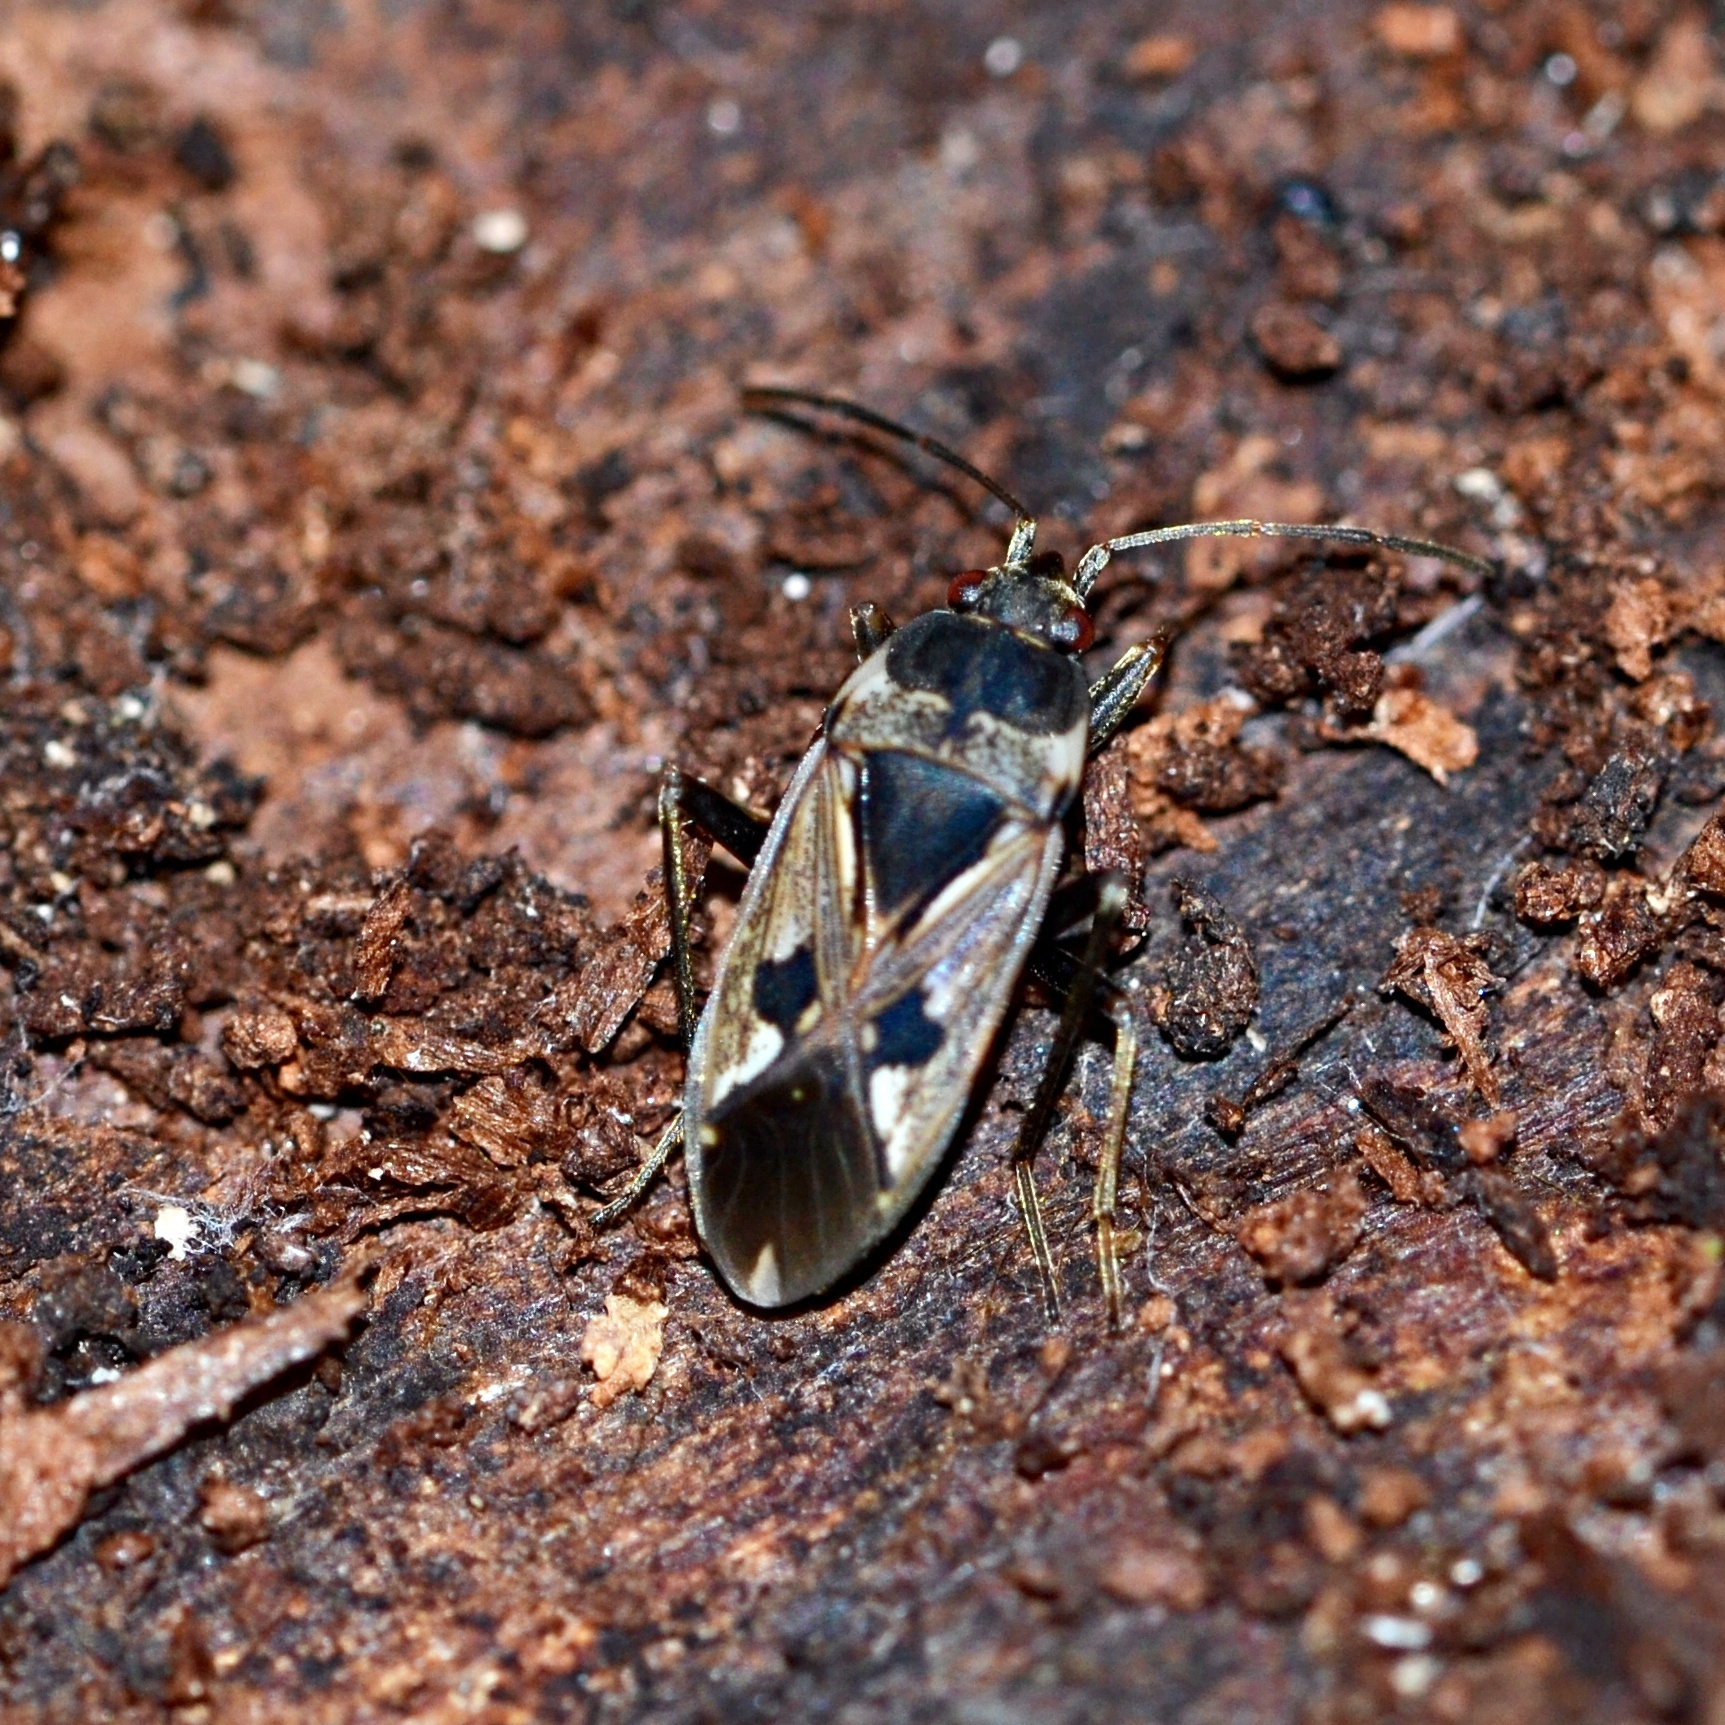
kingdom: Animalia
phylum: Arthropoda
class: Insecta
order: Hemiptera
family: Rhyparochromidae
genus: Rhyparochromus
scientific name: Rhyparochromus vulgaris
